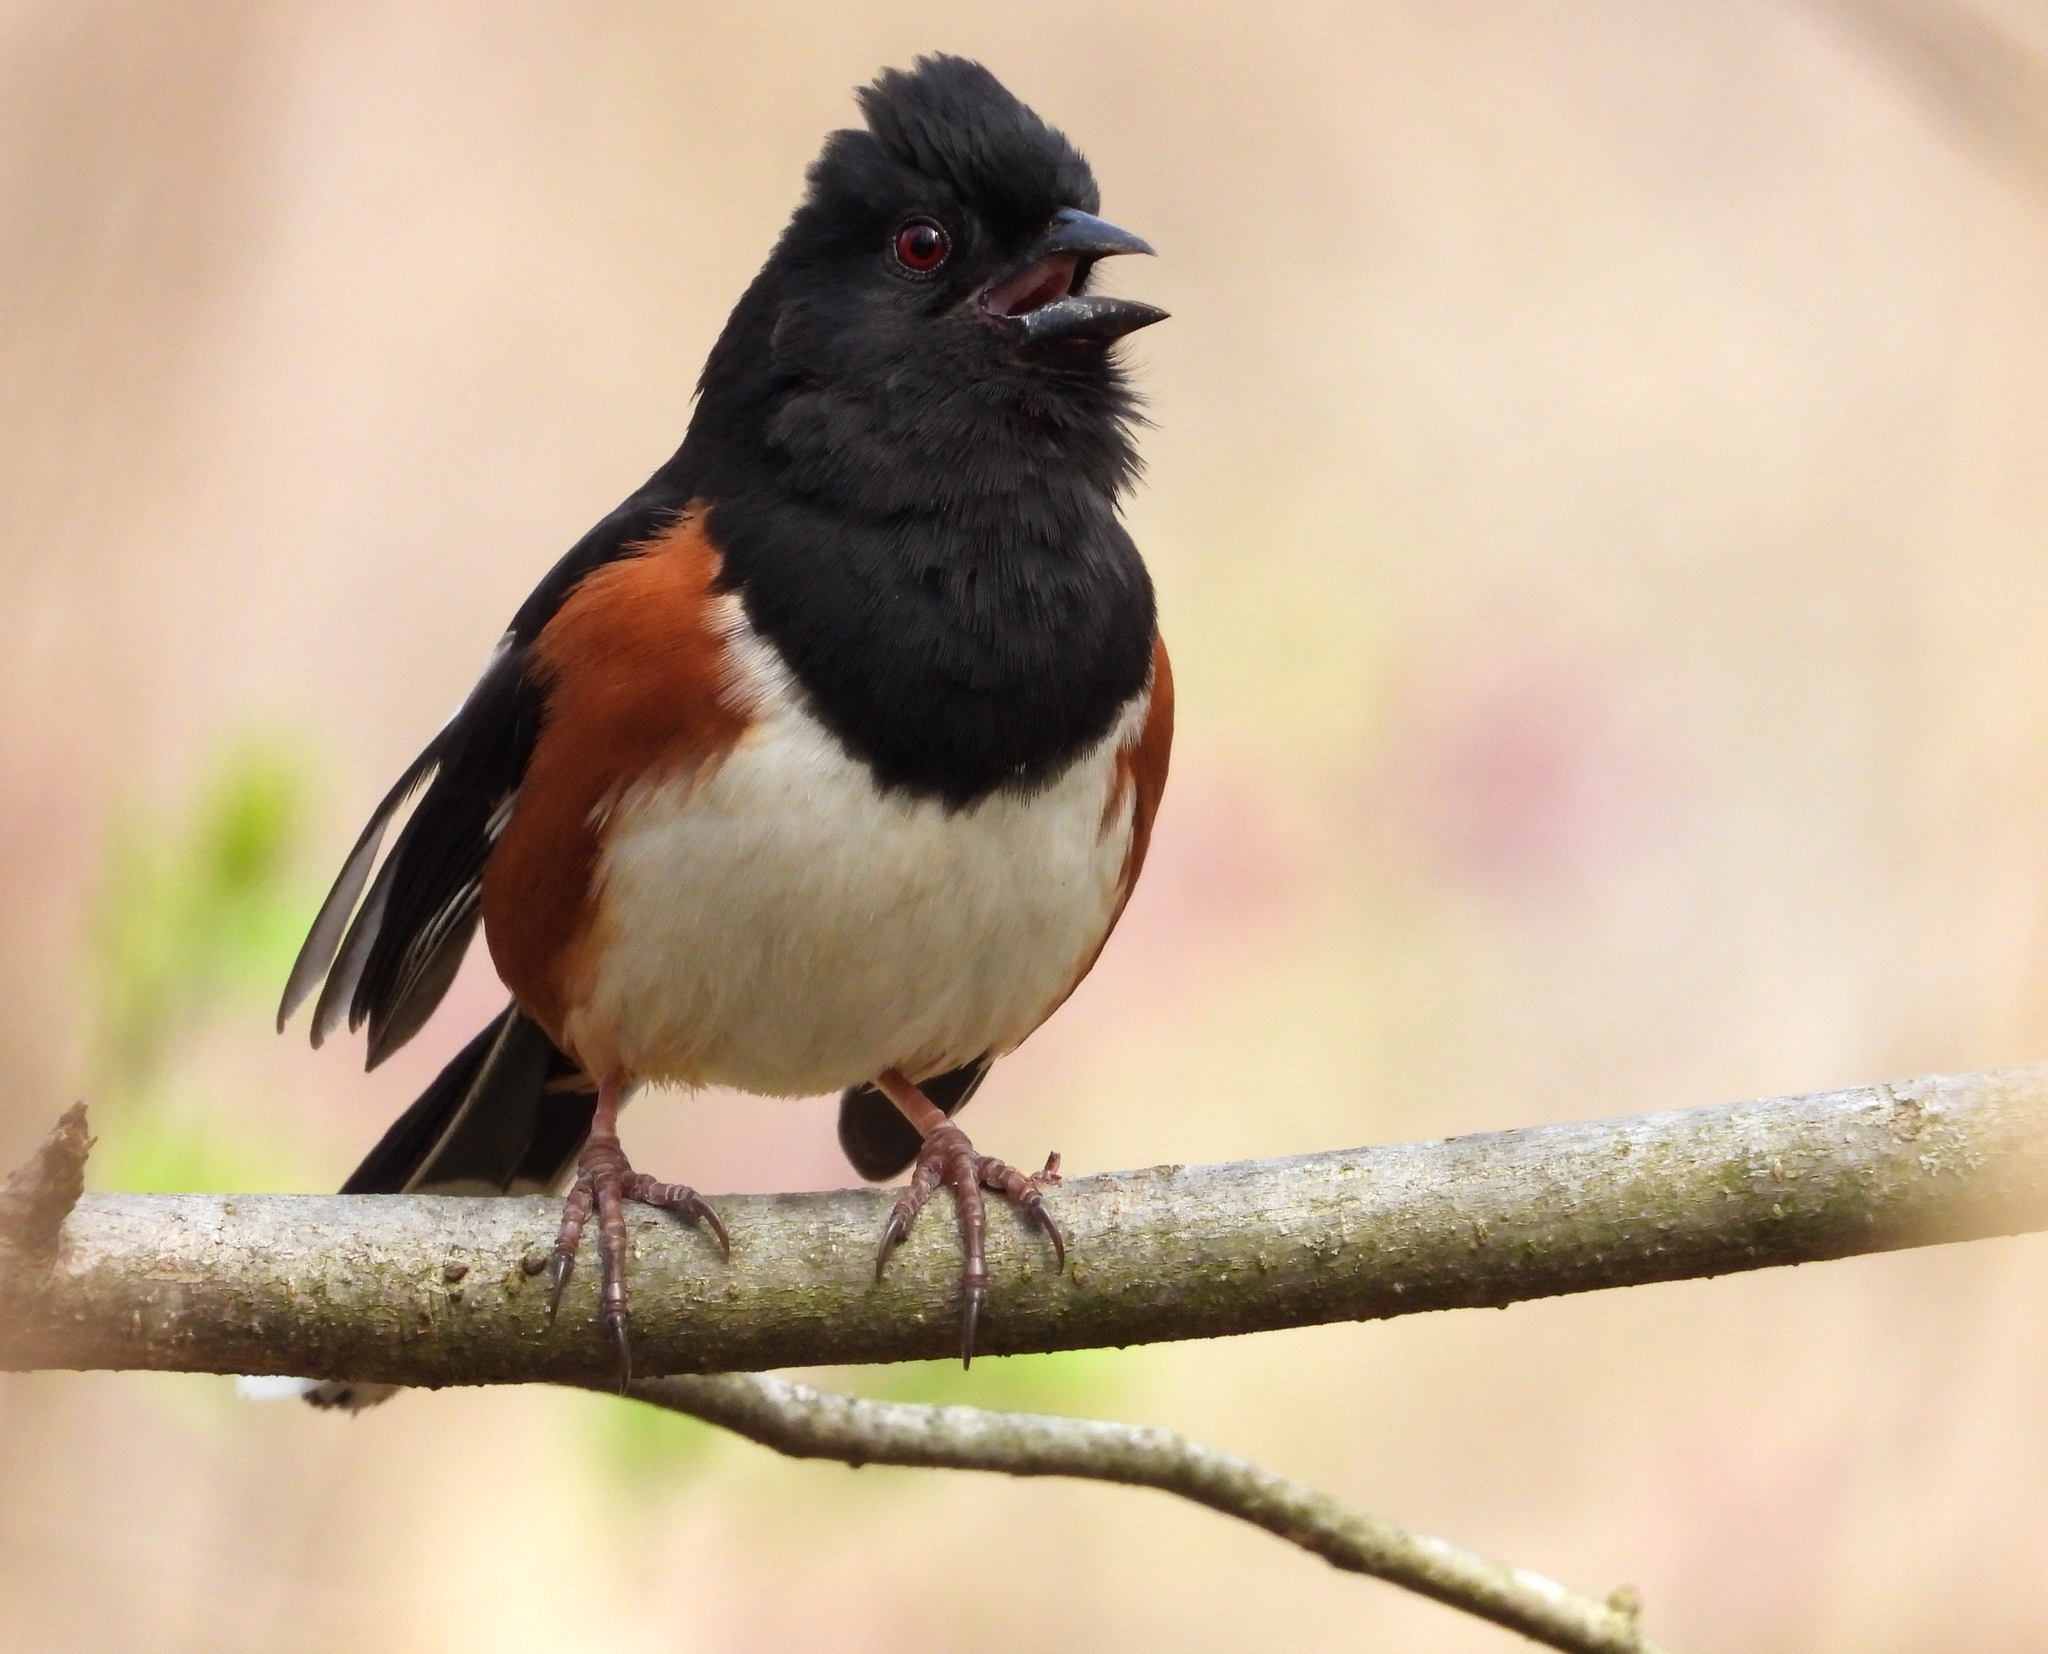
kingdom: Animalia
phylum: Chordata
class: Aves
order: Passeriformes
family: Passerellidae
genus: Pipilo
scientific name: Pipilo erythrophthalmus
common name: Eastern towhee
